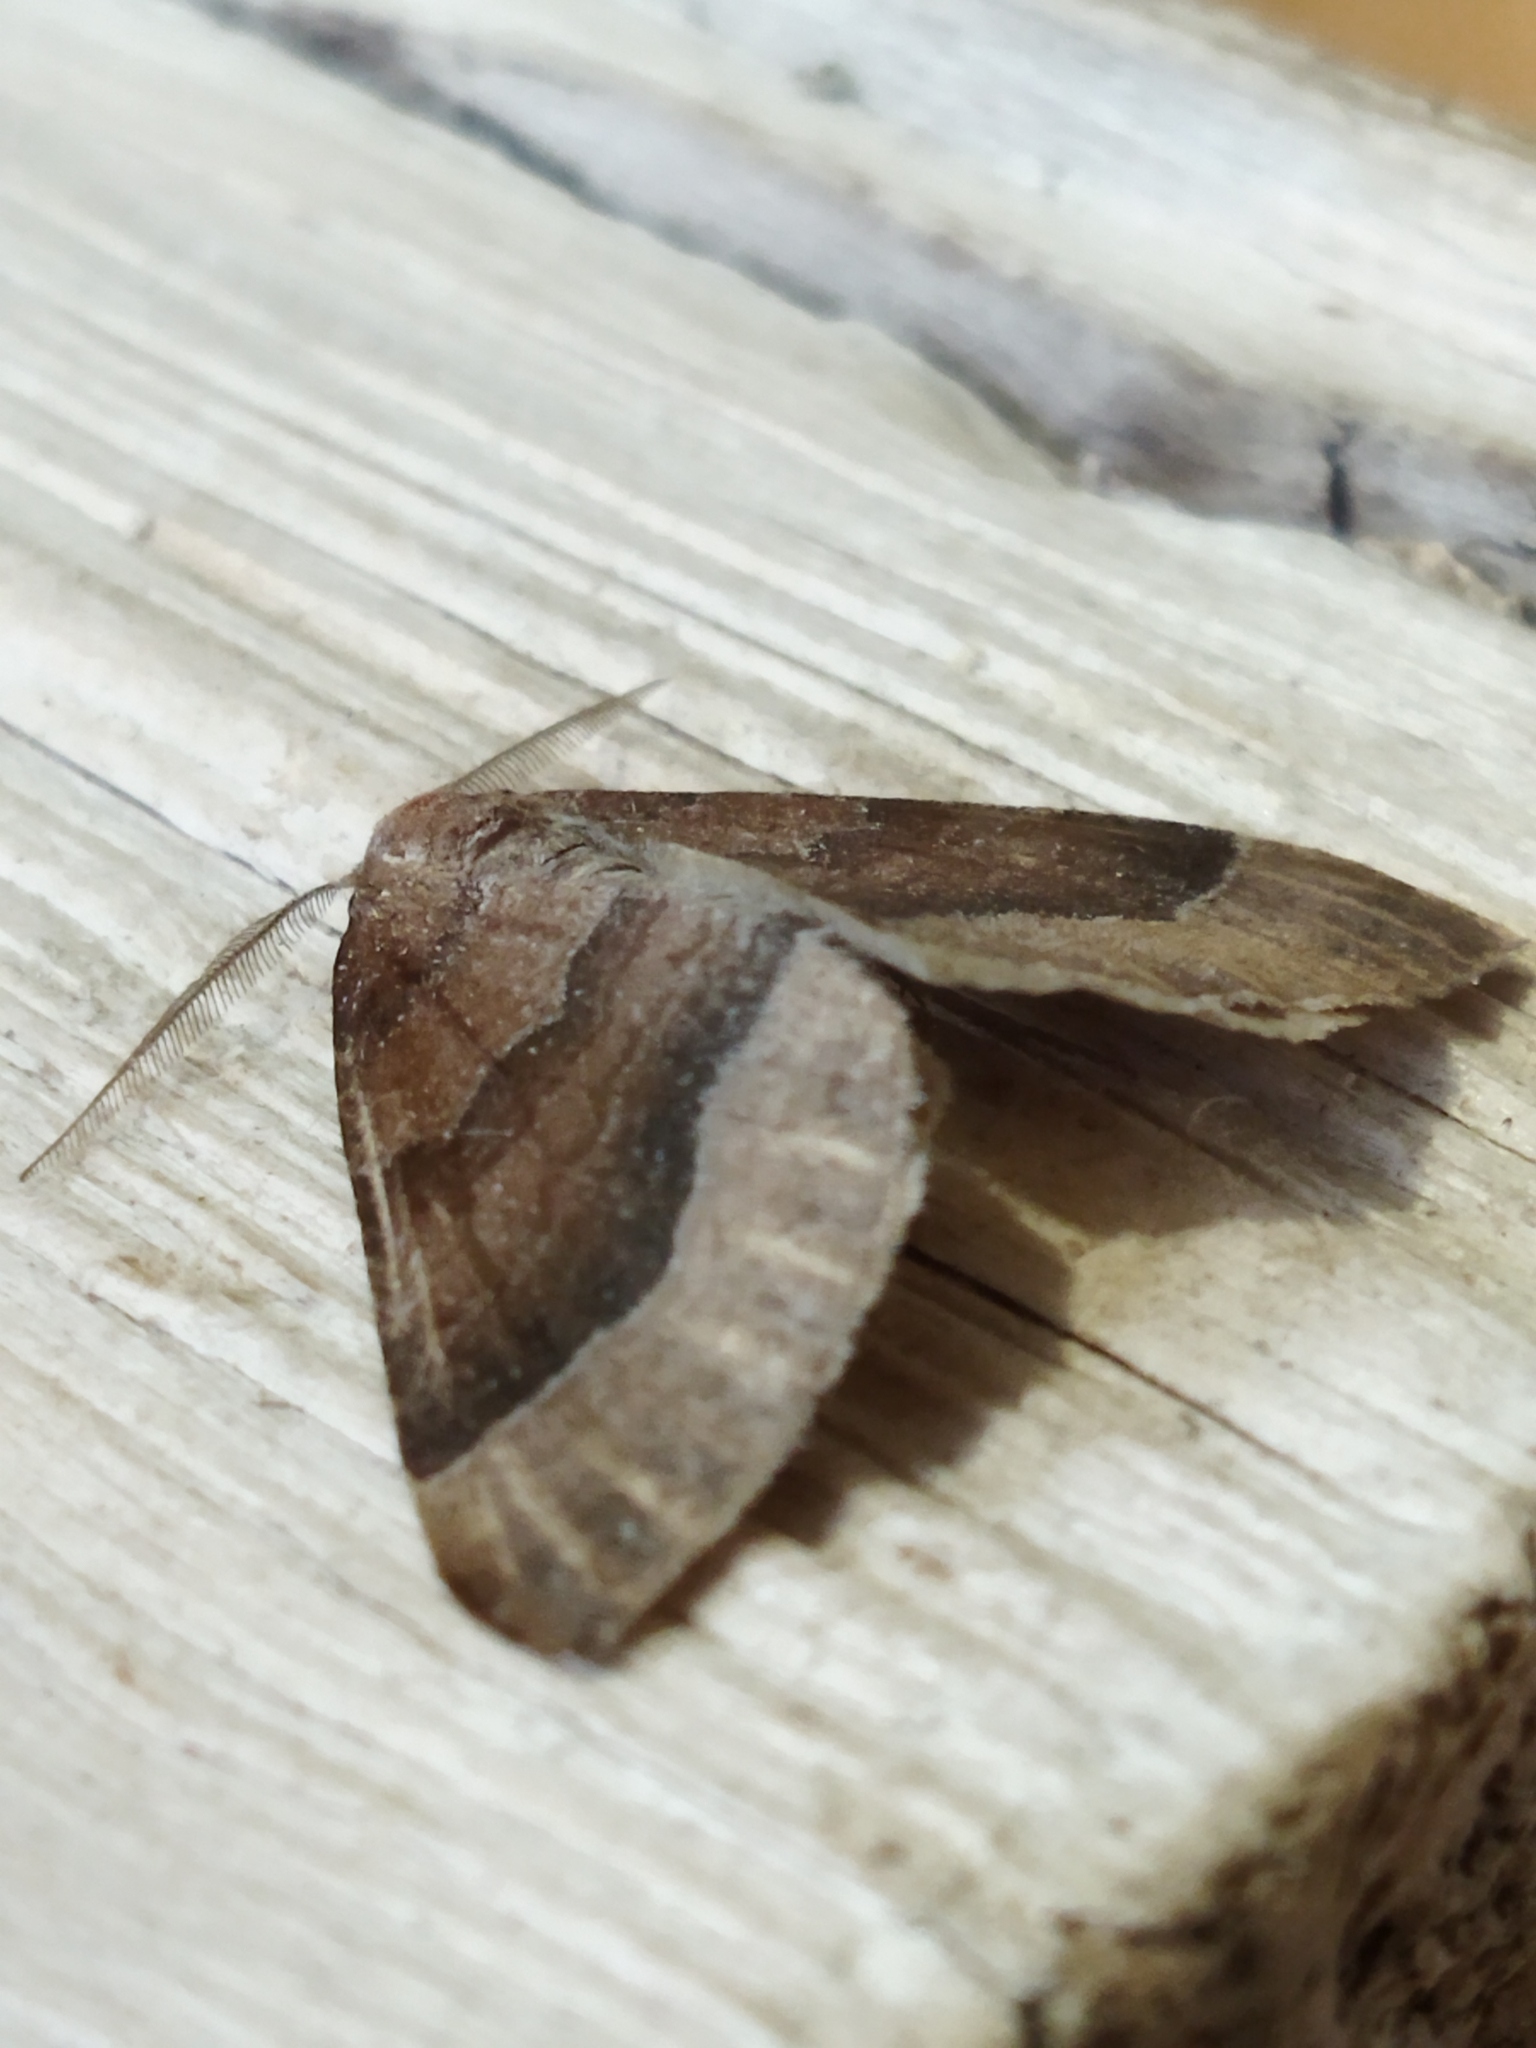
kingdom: Animalia
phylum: Arthropoda
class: Insecta
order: Lepidoptera
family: Geometridae
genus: Larentia
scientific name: Larentia clavaria
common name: Mallow
